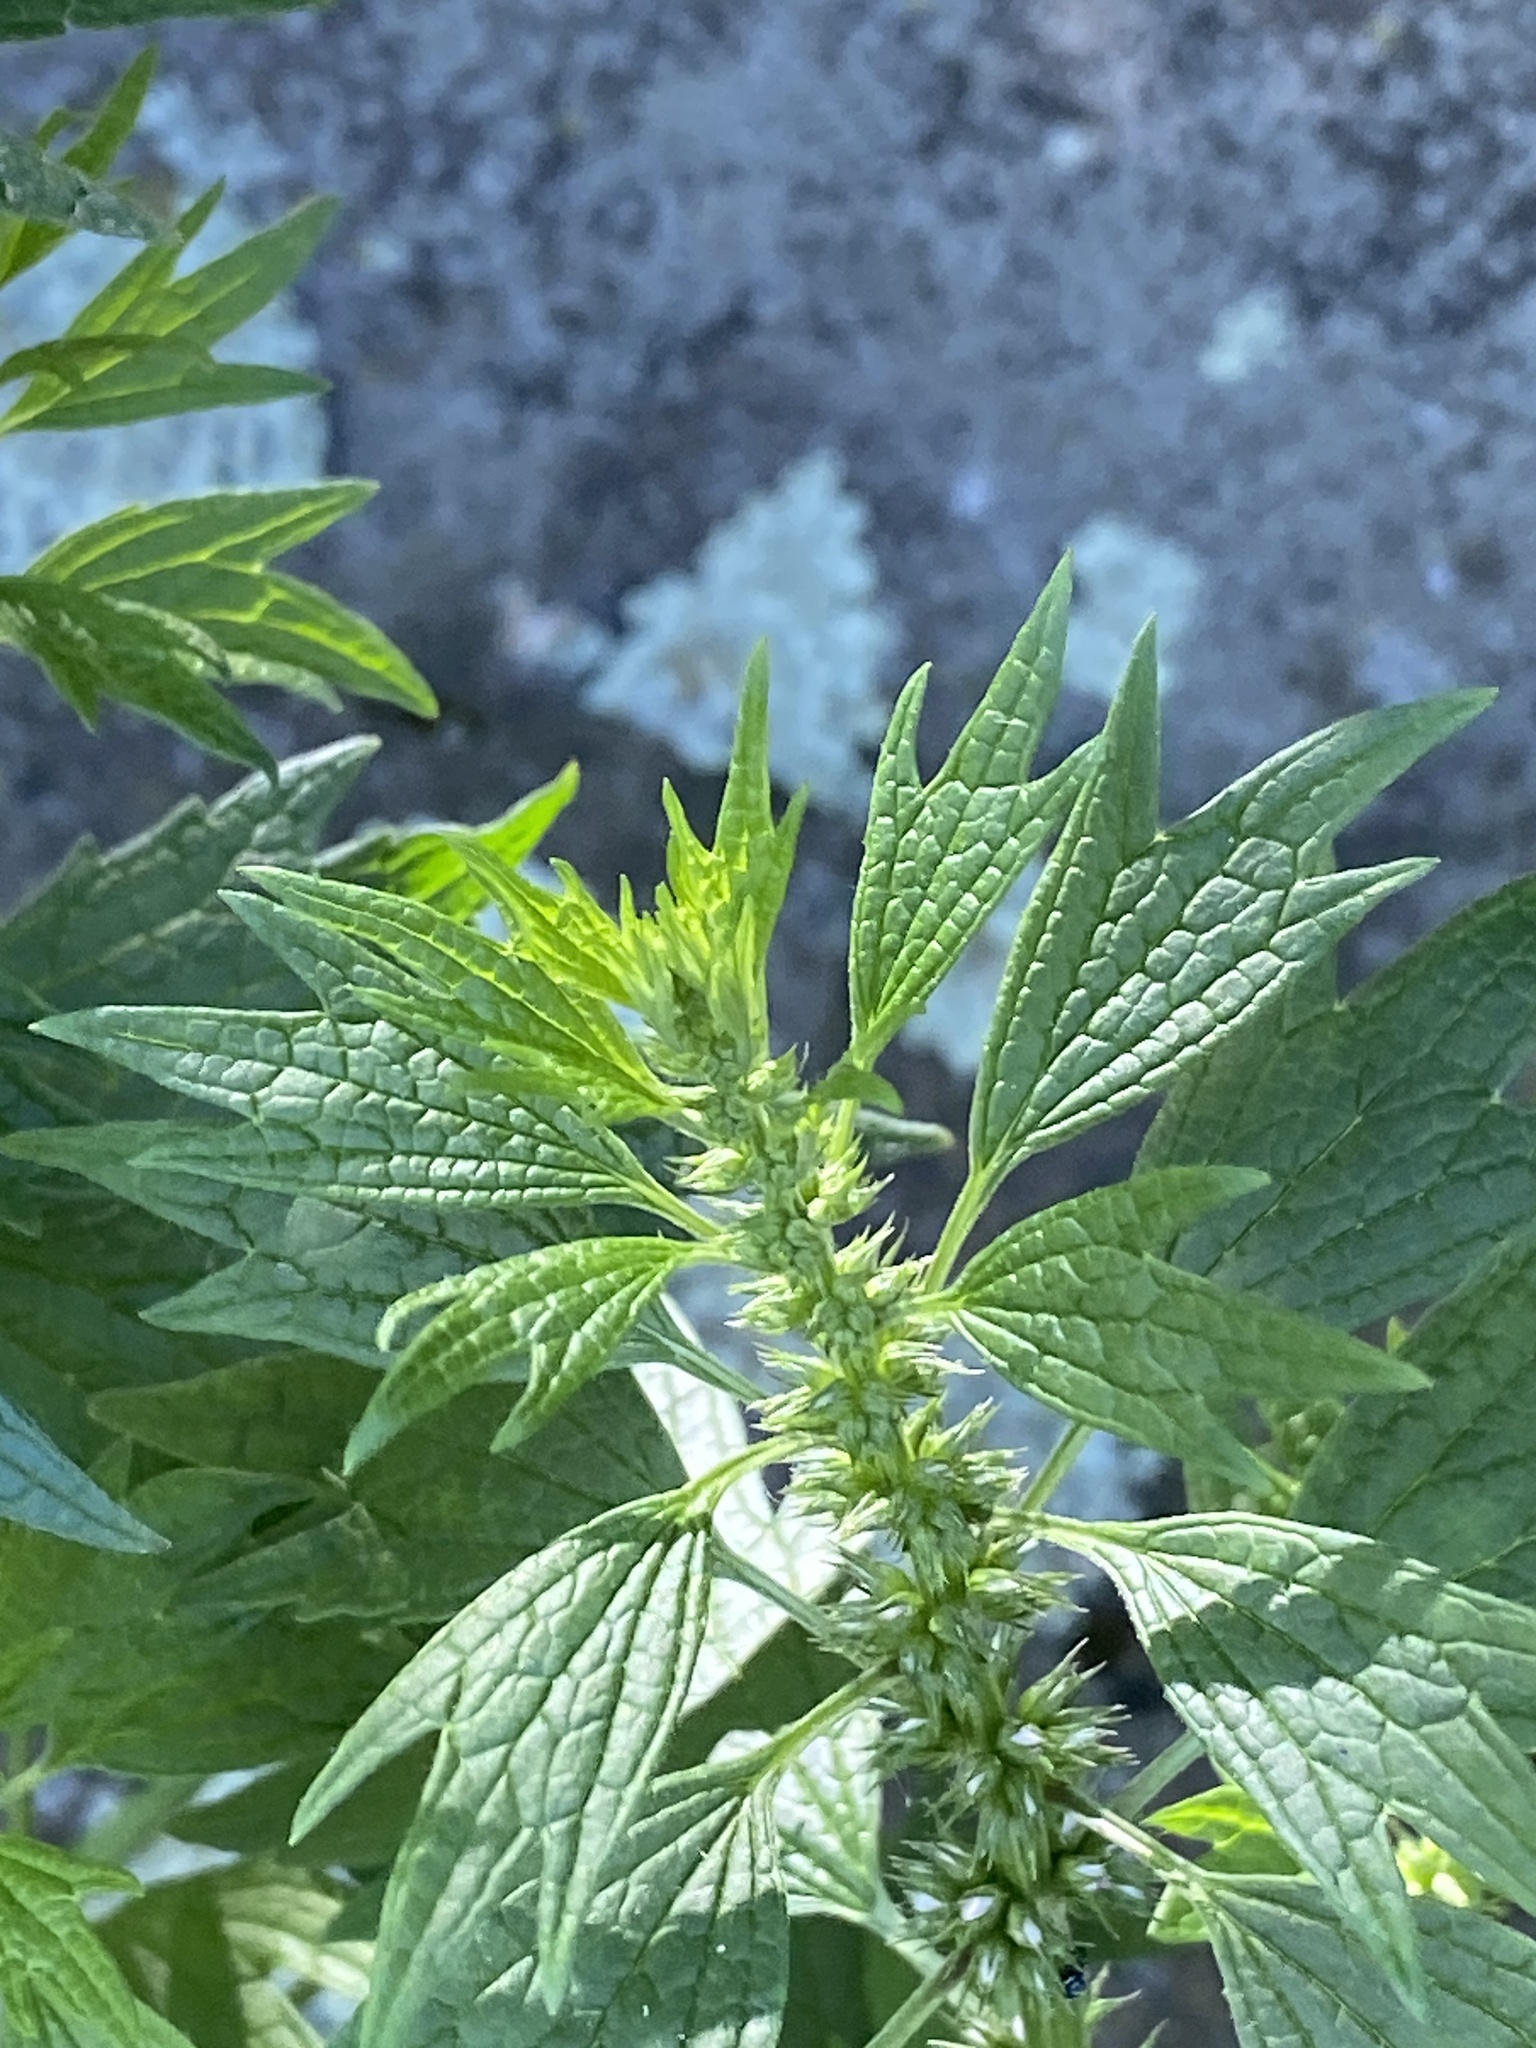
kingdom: Plantae
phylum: Tracheophyta
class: Magnoliopsida
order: Lamiales
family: Lamiaceae
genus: Leonurus
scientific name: Leonurus cardiaca
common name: Motherwort
